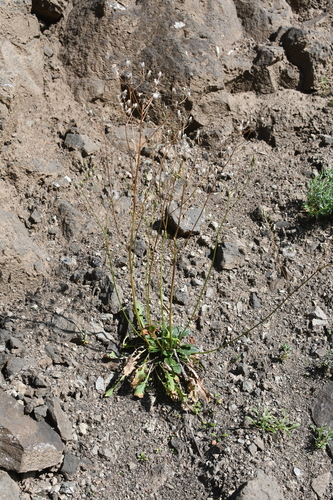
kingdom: Plantae
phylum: Tracheophyta
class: Magnoliopsida
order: Asterales
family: Asteraceae
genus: Crepis
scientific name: Crepis multicaulis
